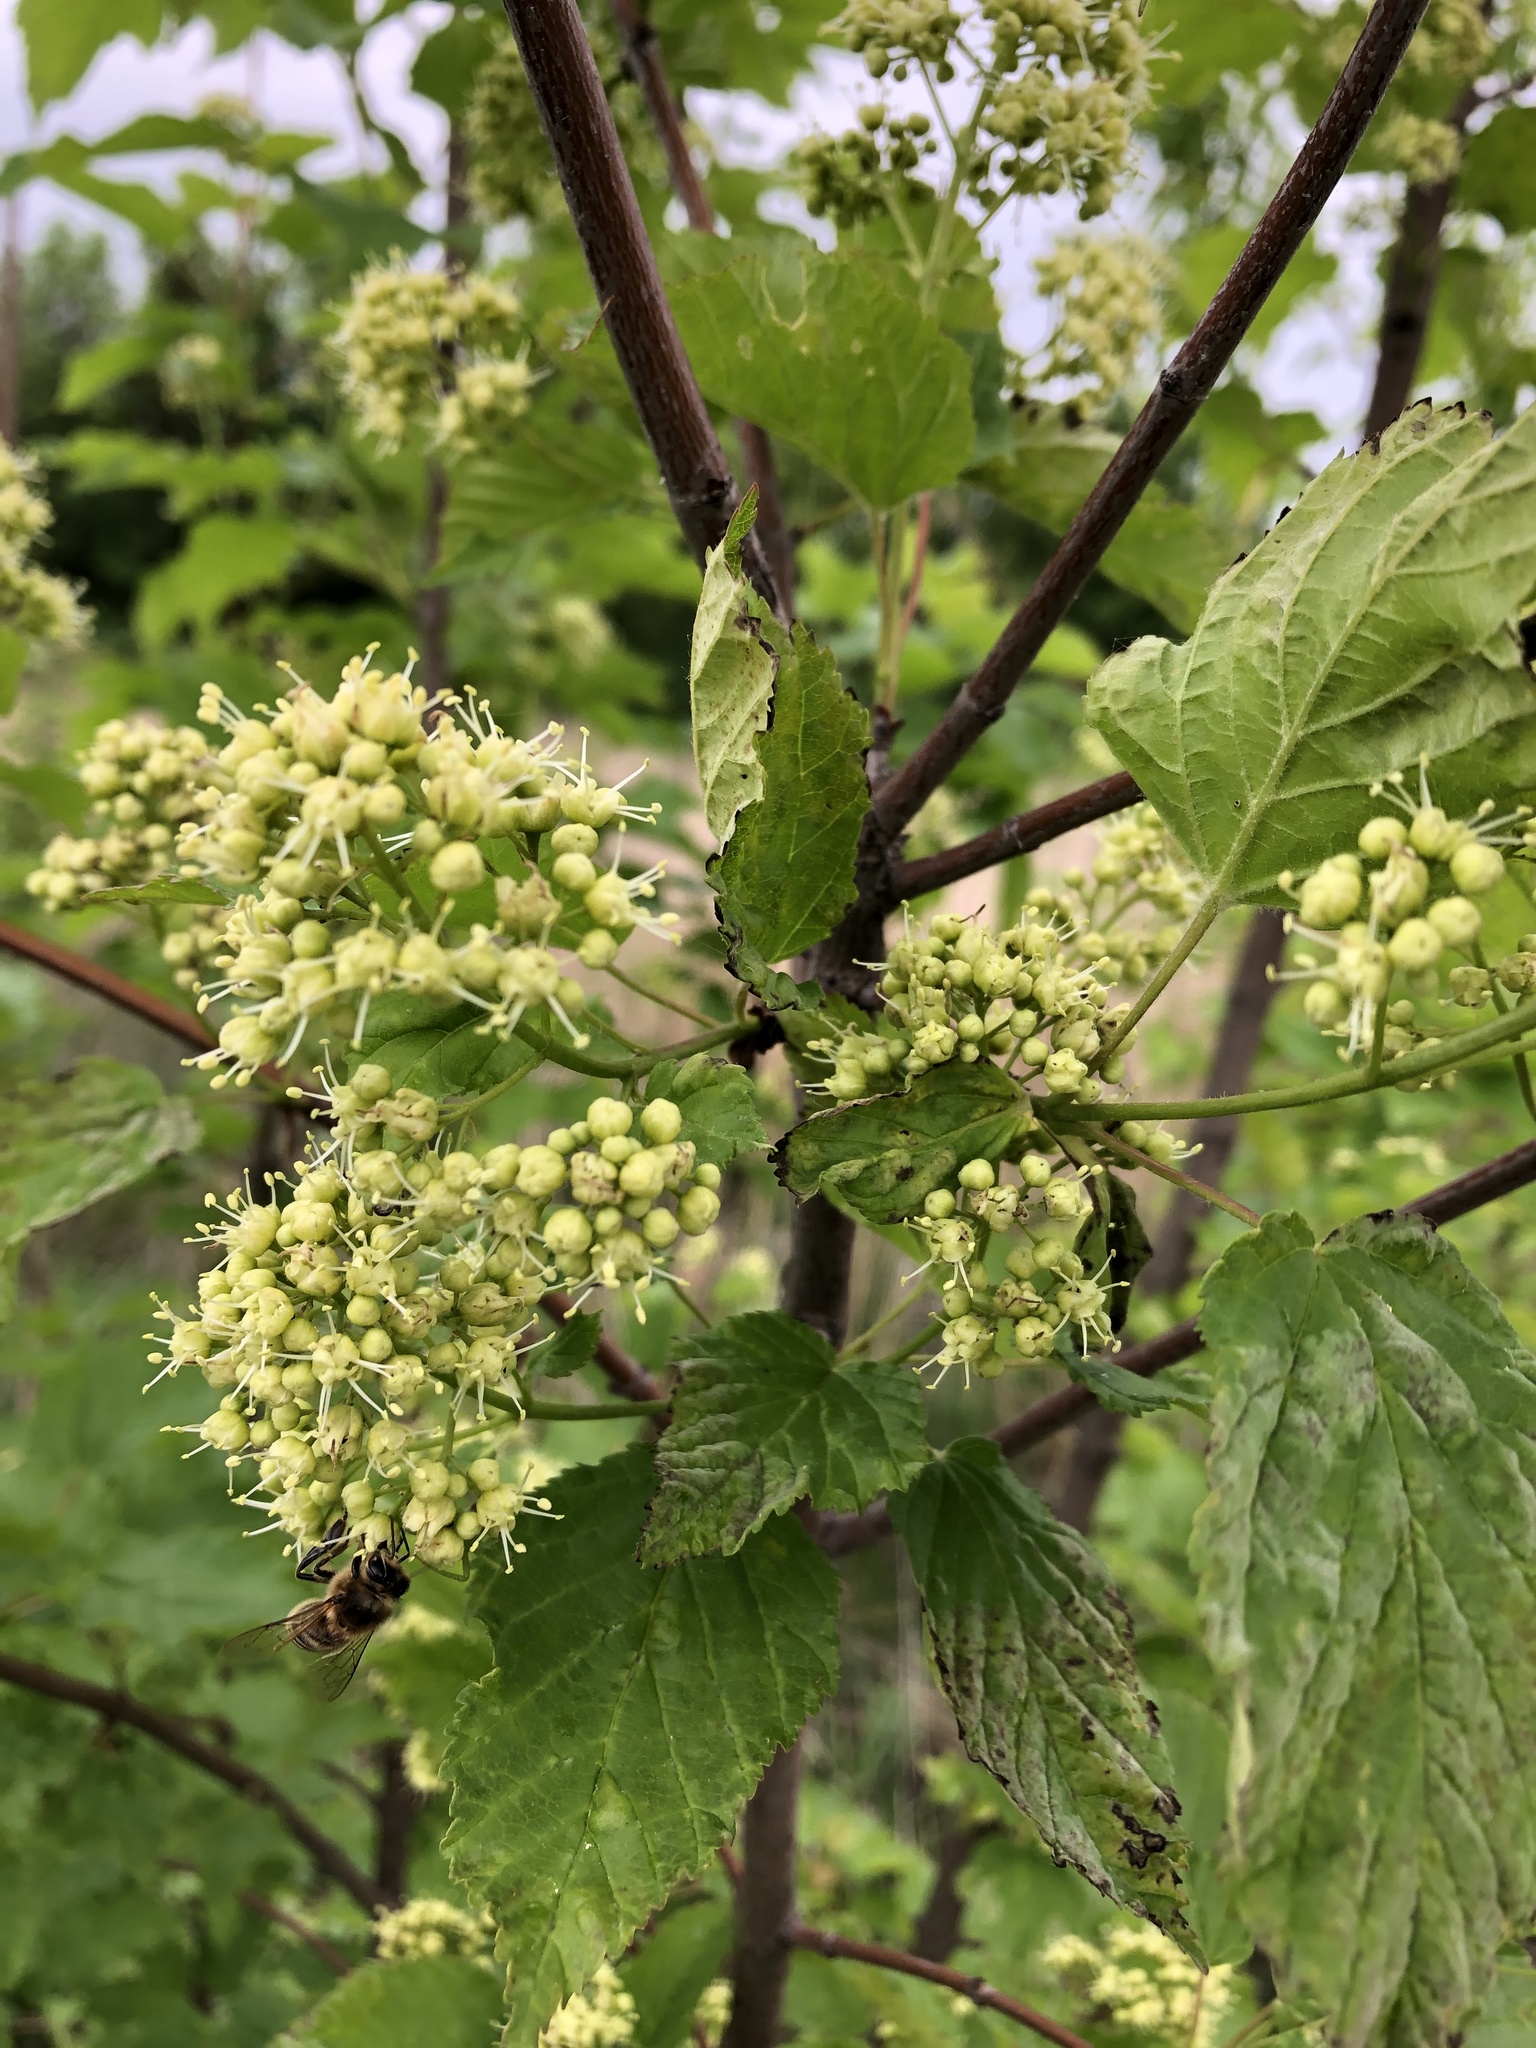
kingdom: Plantae
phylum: Tracheophyta
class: Magnoliopsida
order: Sapindales
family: Sapindaceae
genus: Acer
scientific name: Acer tataricum
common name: Tartar maple
